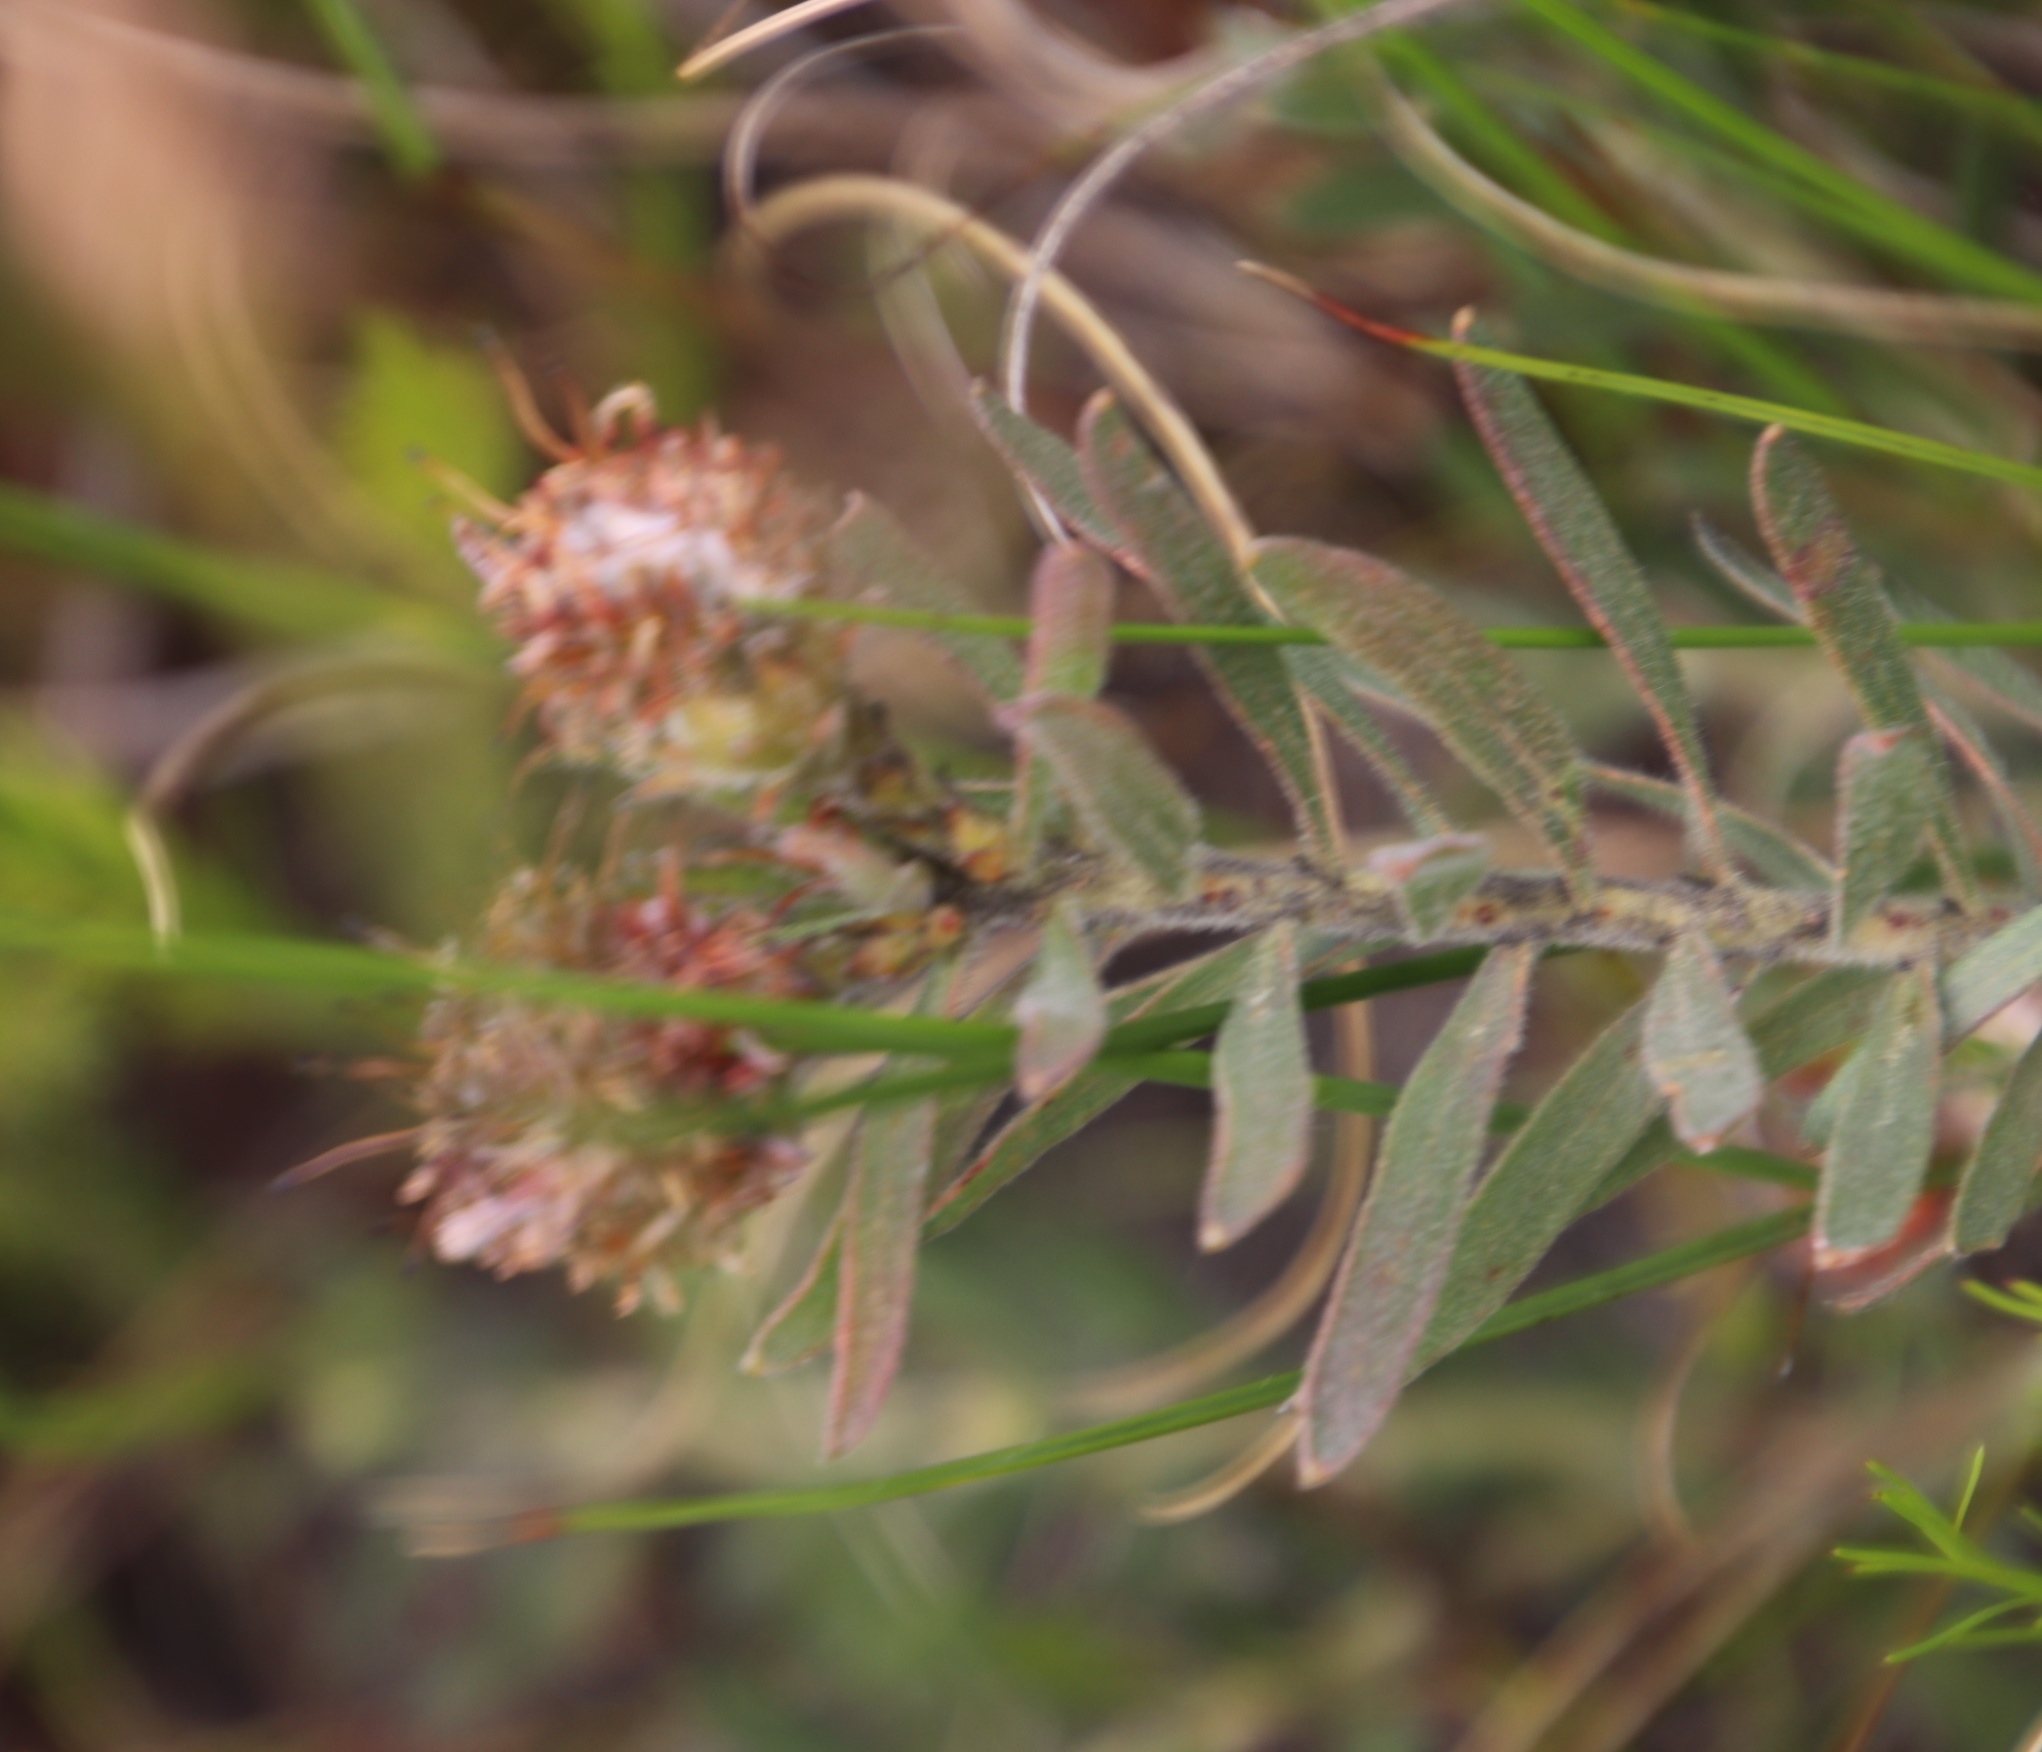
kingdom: Plantae
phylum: Tracheophyta
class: Magnoliopsida
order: Proteales
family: Proteaceae
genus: Leucospermum
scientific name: Leucospermum prostratum
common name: Yellow-trailing pincushion
